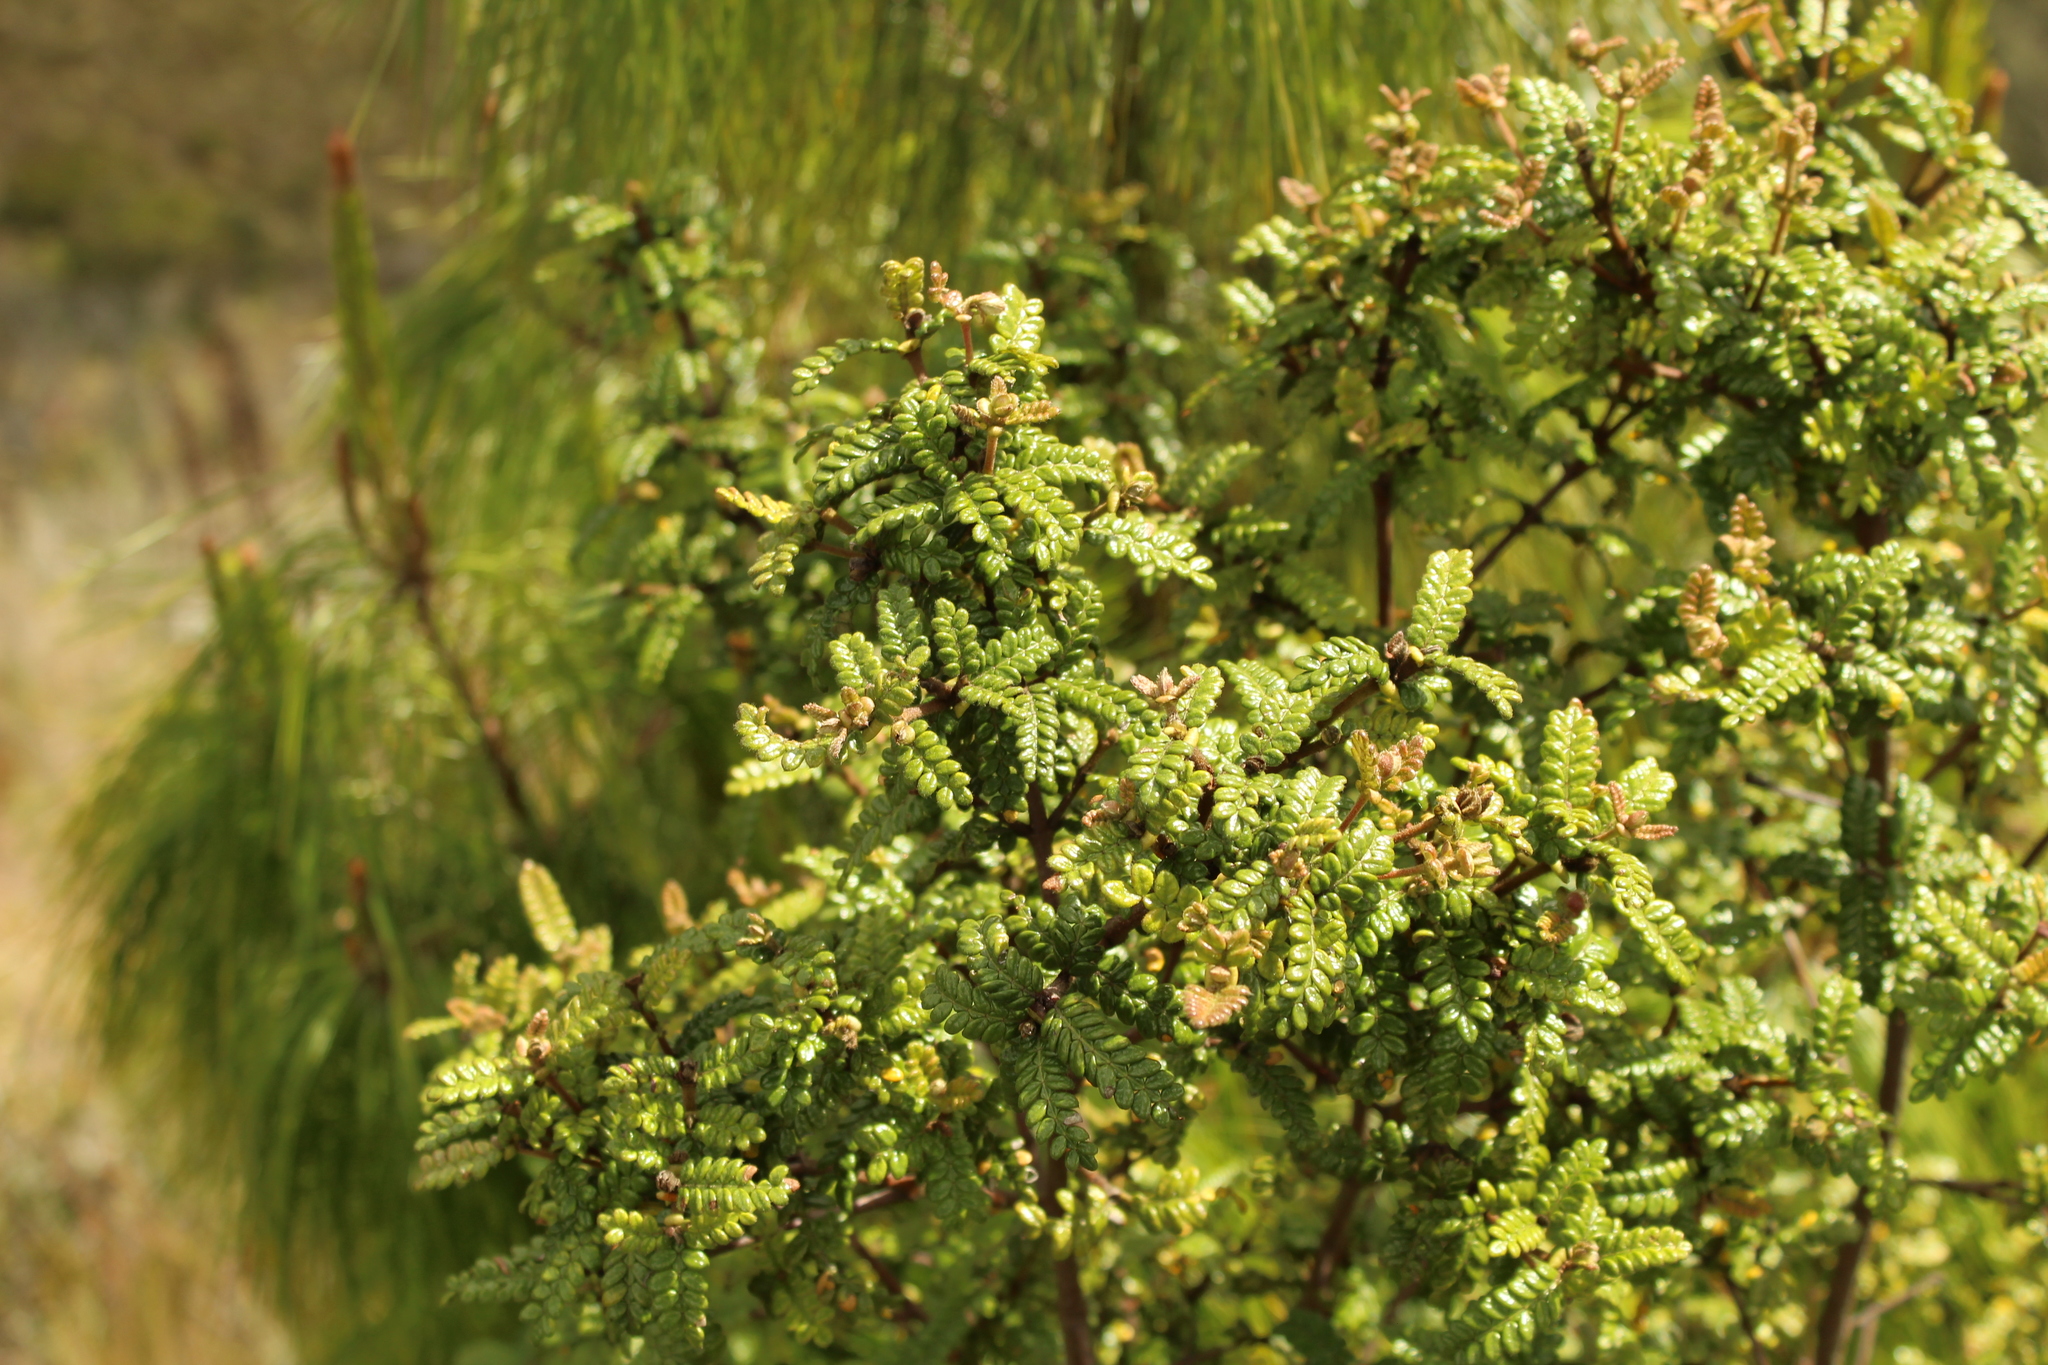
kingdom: Plantae
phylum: Tracheophyta
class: Magnoliopsida
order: Oxalidales
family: Cunoniaceae
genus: Weinmannia
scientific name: Weinmannia tomentosa
